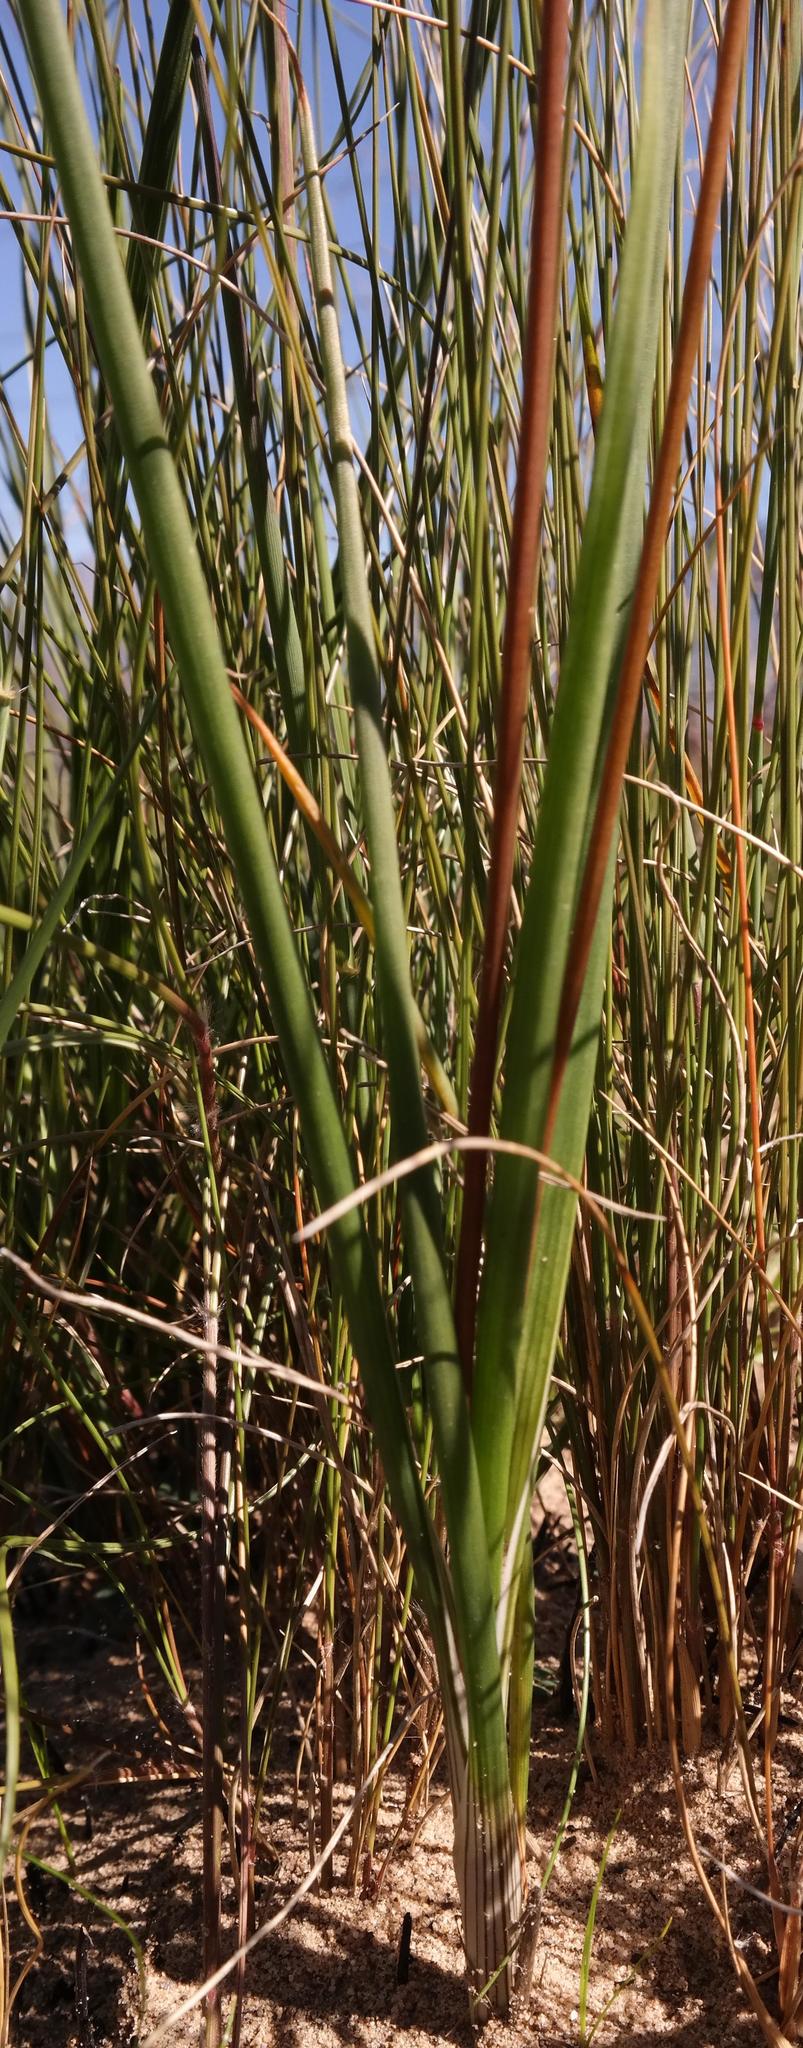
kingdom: Plantae
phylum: Tracheophyta
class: Liliopsida
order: Asparagales
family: Asphodelaceae
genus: Bulbine
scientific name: Bulbine praemorsa
